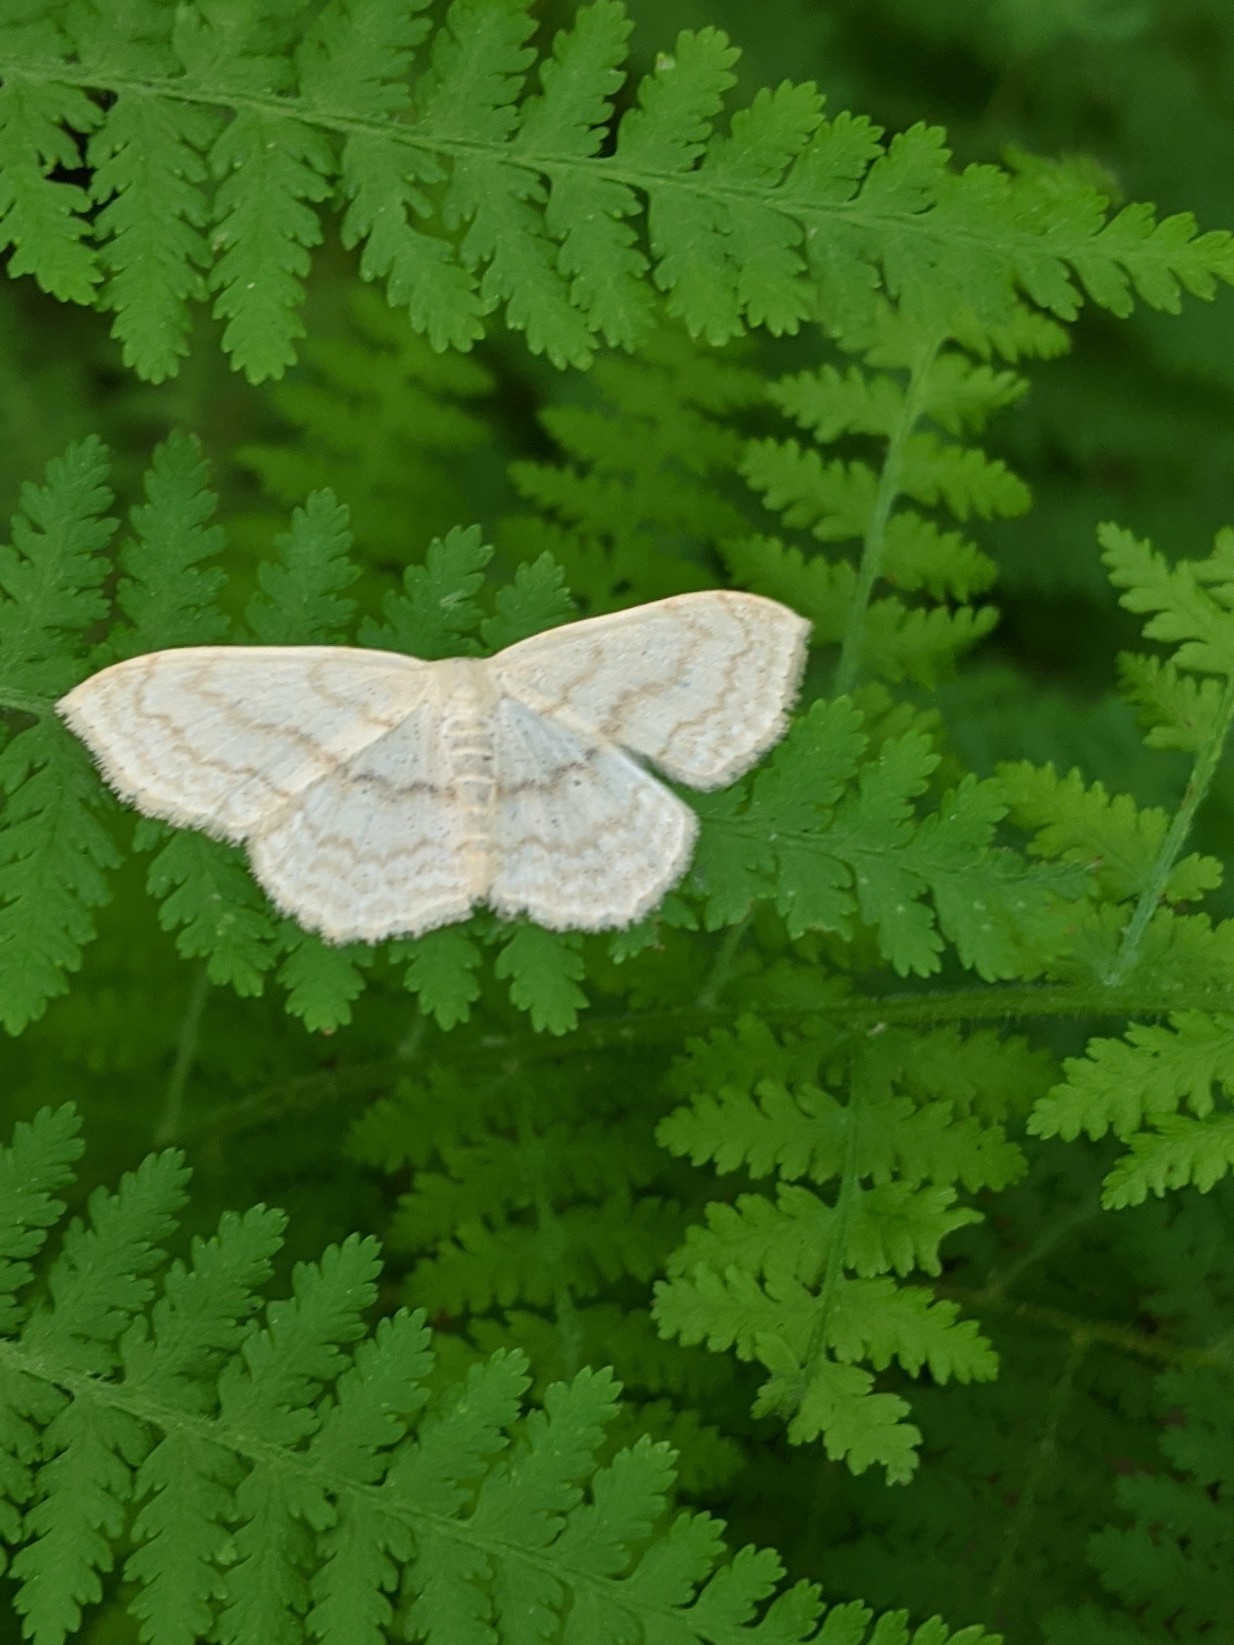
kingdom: Animalia
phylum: Arthropoda
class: Insecta
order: Lepidoptera
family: Geometridae
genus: Scopula
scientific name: Scopula limboundata
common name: Large lace border
